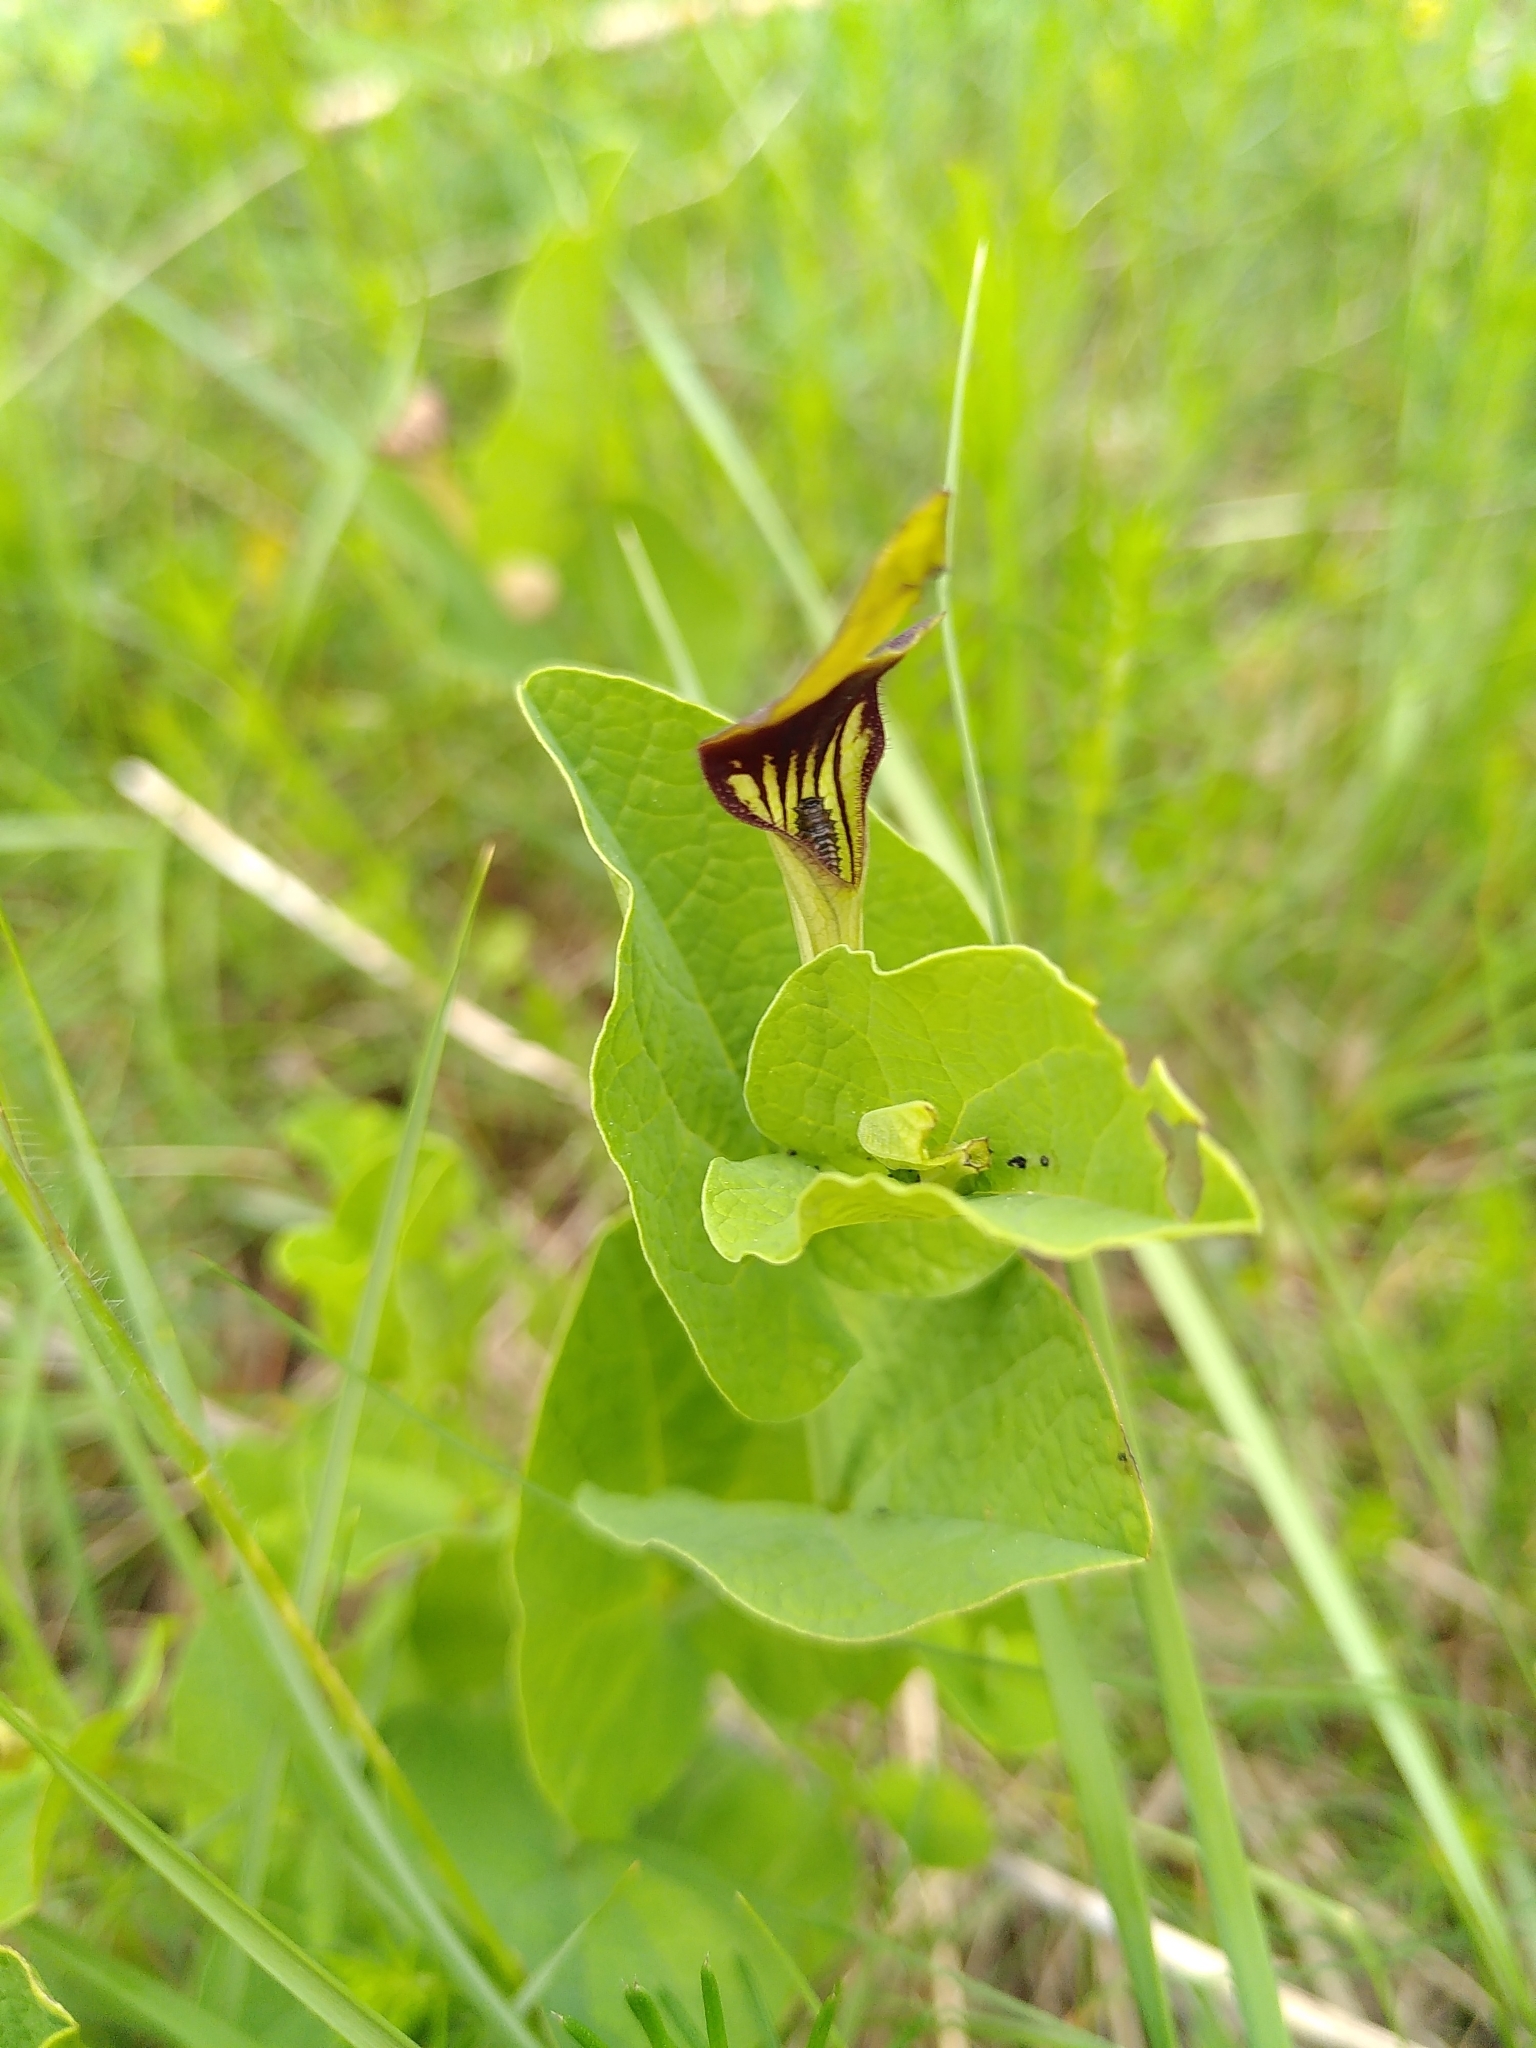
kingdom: Animalia
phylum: Arthropoda
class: Insecta
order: Lepidoptera
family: Papilionidae
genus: Zerynthia
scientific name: Zerynthia polyxena
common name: Southern festoon
